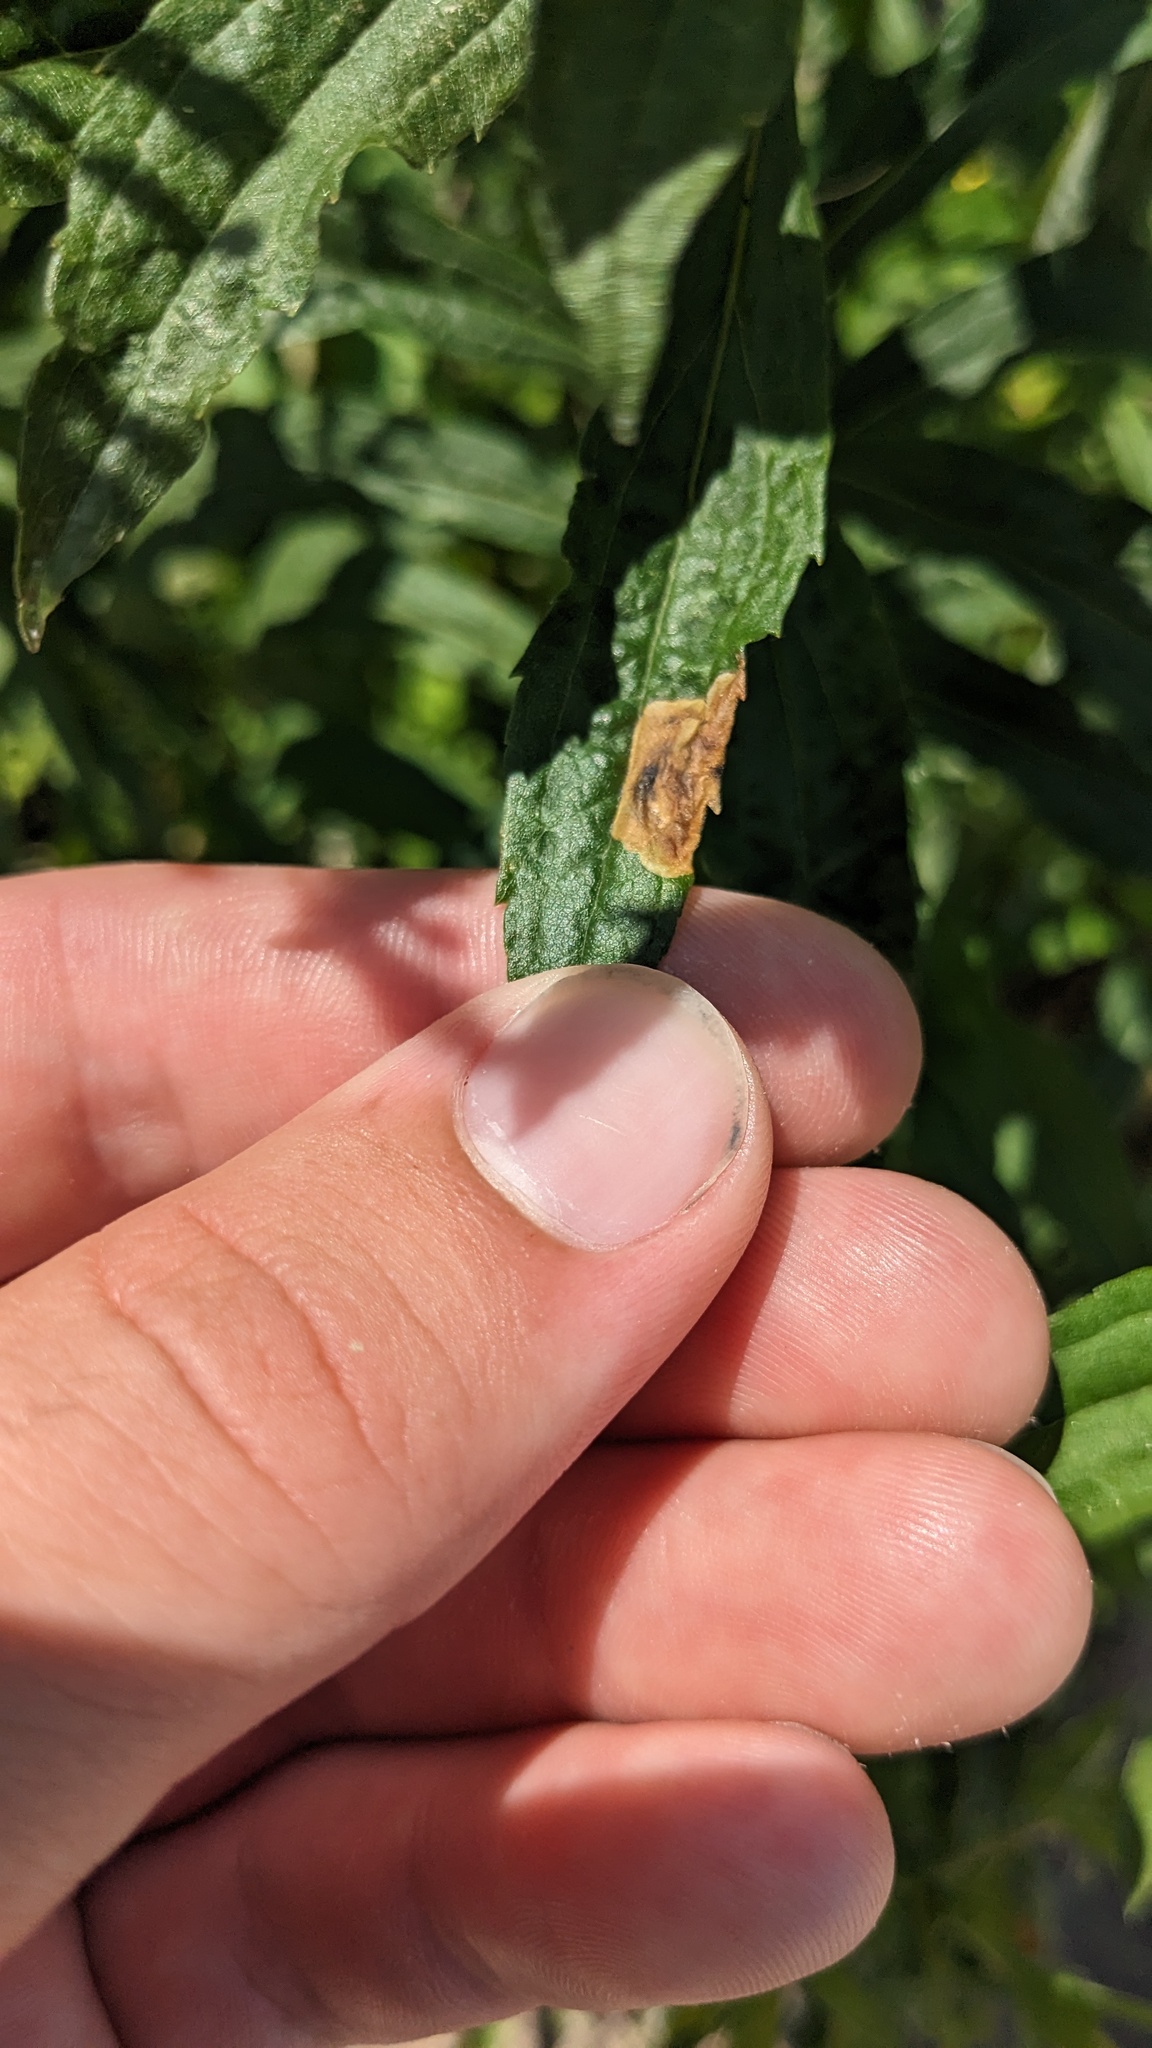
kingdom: Animalia
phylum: Arthropoda
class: Insecta
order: Diptera
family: Agromyzidae
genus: Nemorimyza
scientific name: Nemorimyza posticata
